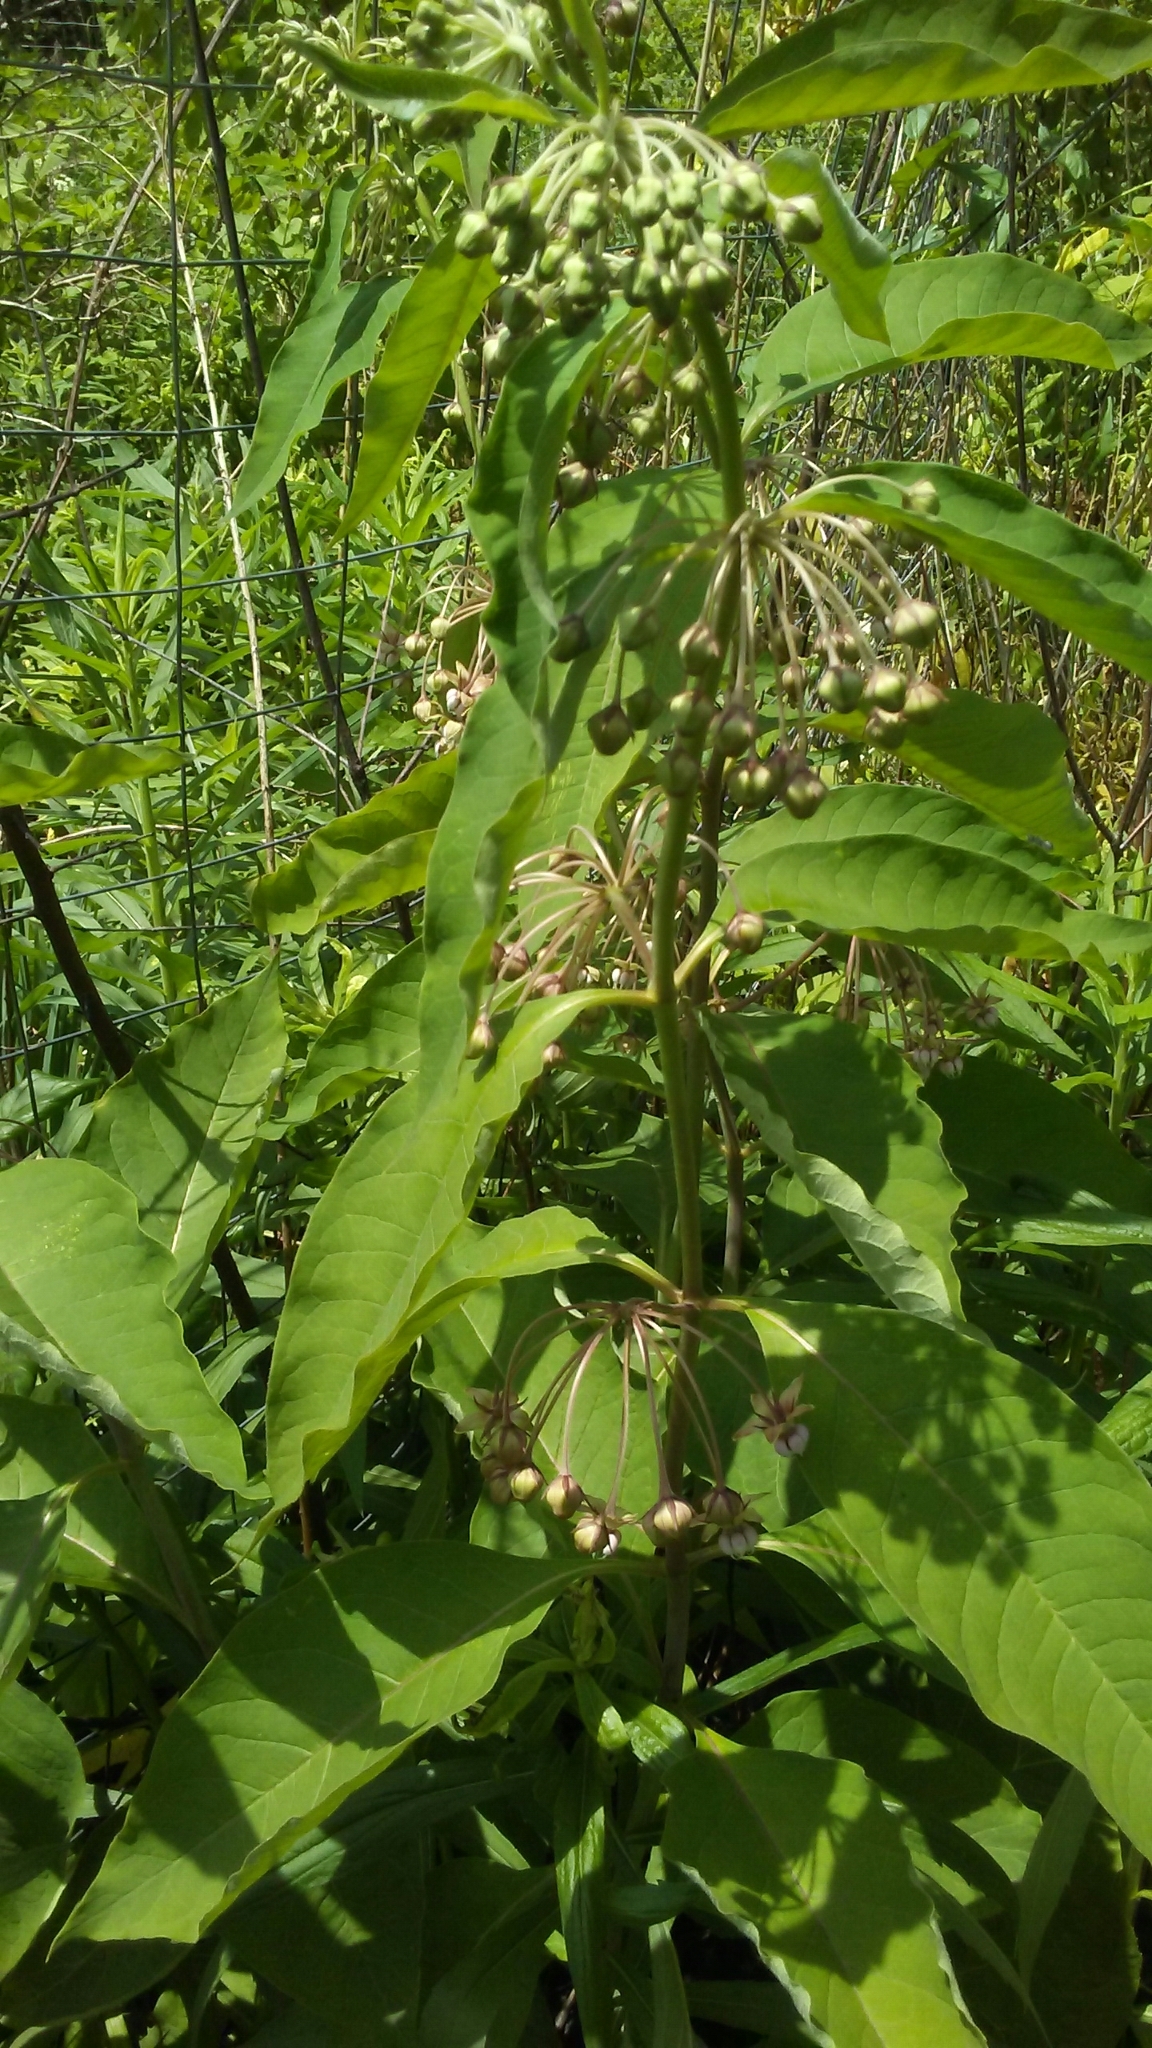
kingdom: Plantae
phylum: Tracheophyta
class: Magnoliopsida
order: Gentianales
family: Apocynaceae
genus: Asclepias
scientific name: Asclepias exaltata
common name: Poke milkweed
